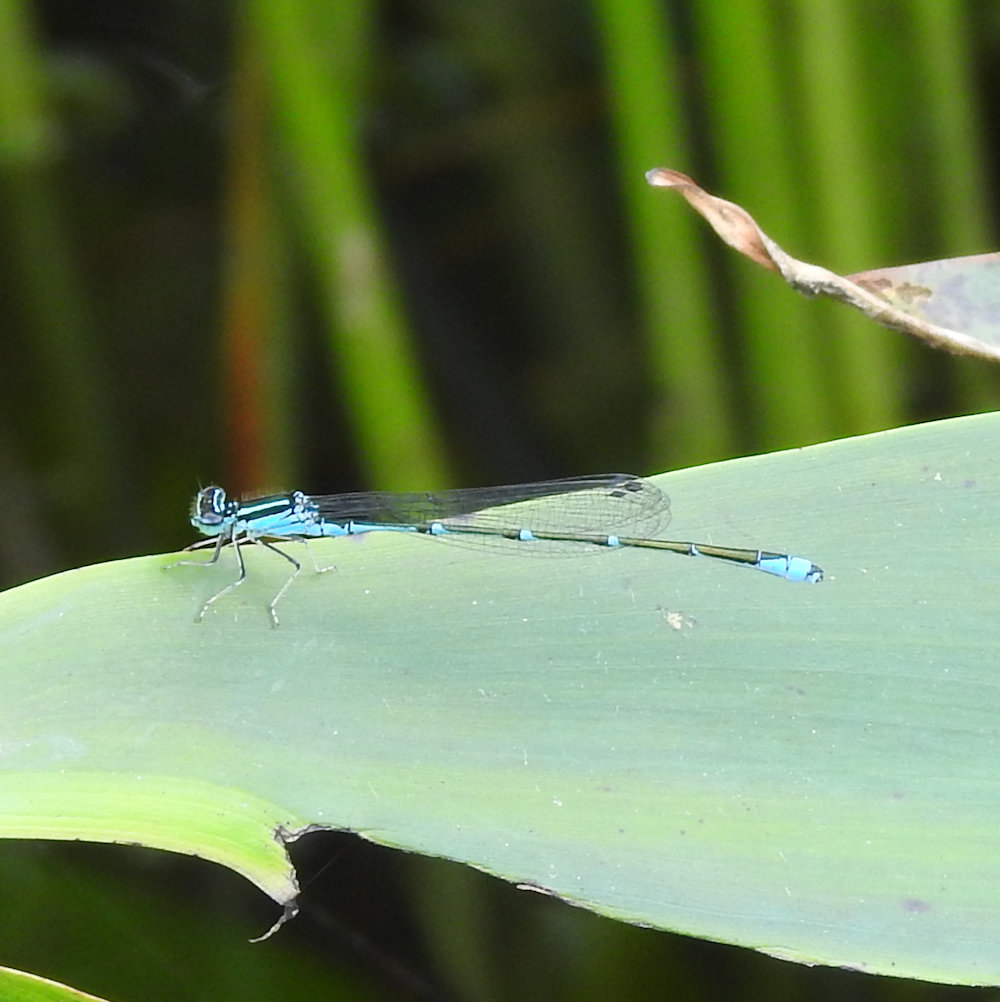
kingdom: Animalia
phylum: Arthropoda
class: Insecta
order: Odonata
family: Coenagrionidae
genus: Enallagma
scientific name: Enallagma exsulans
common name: Stream bluet
